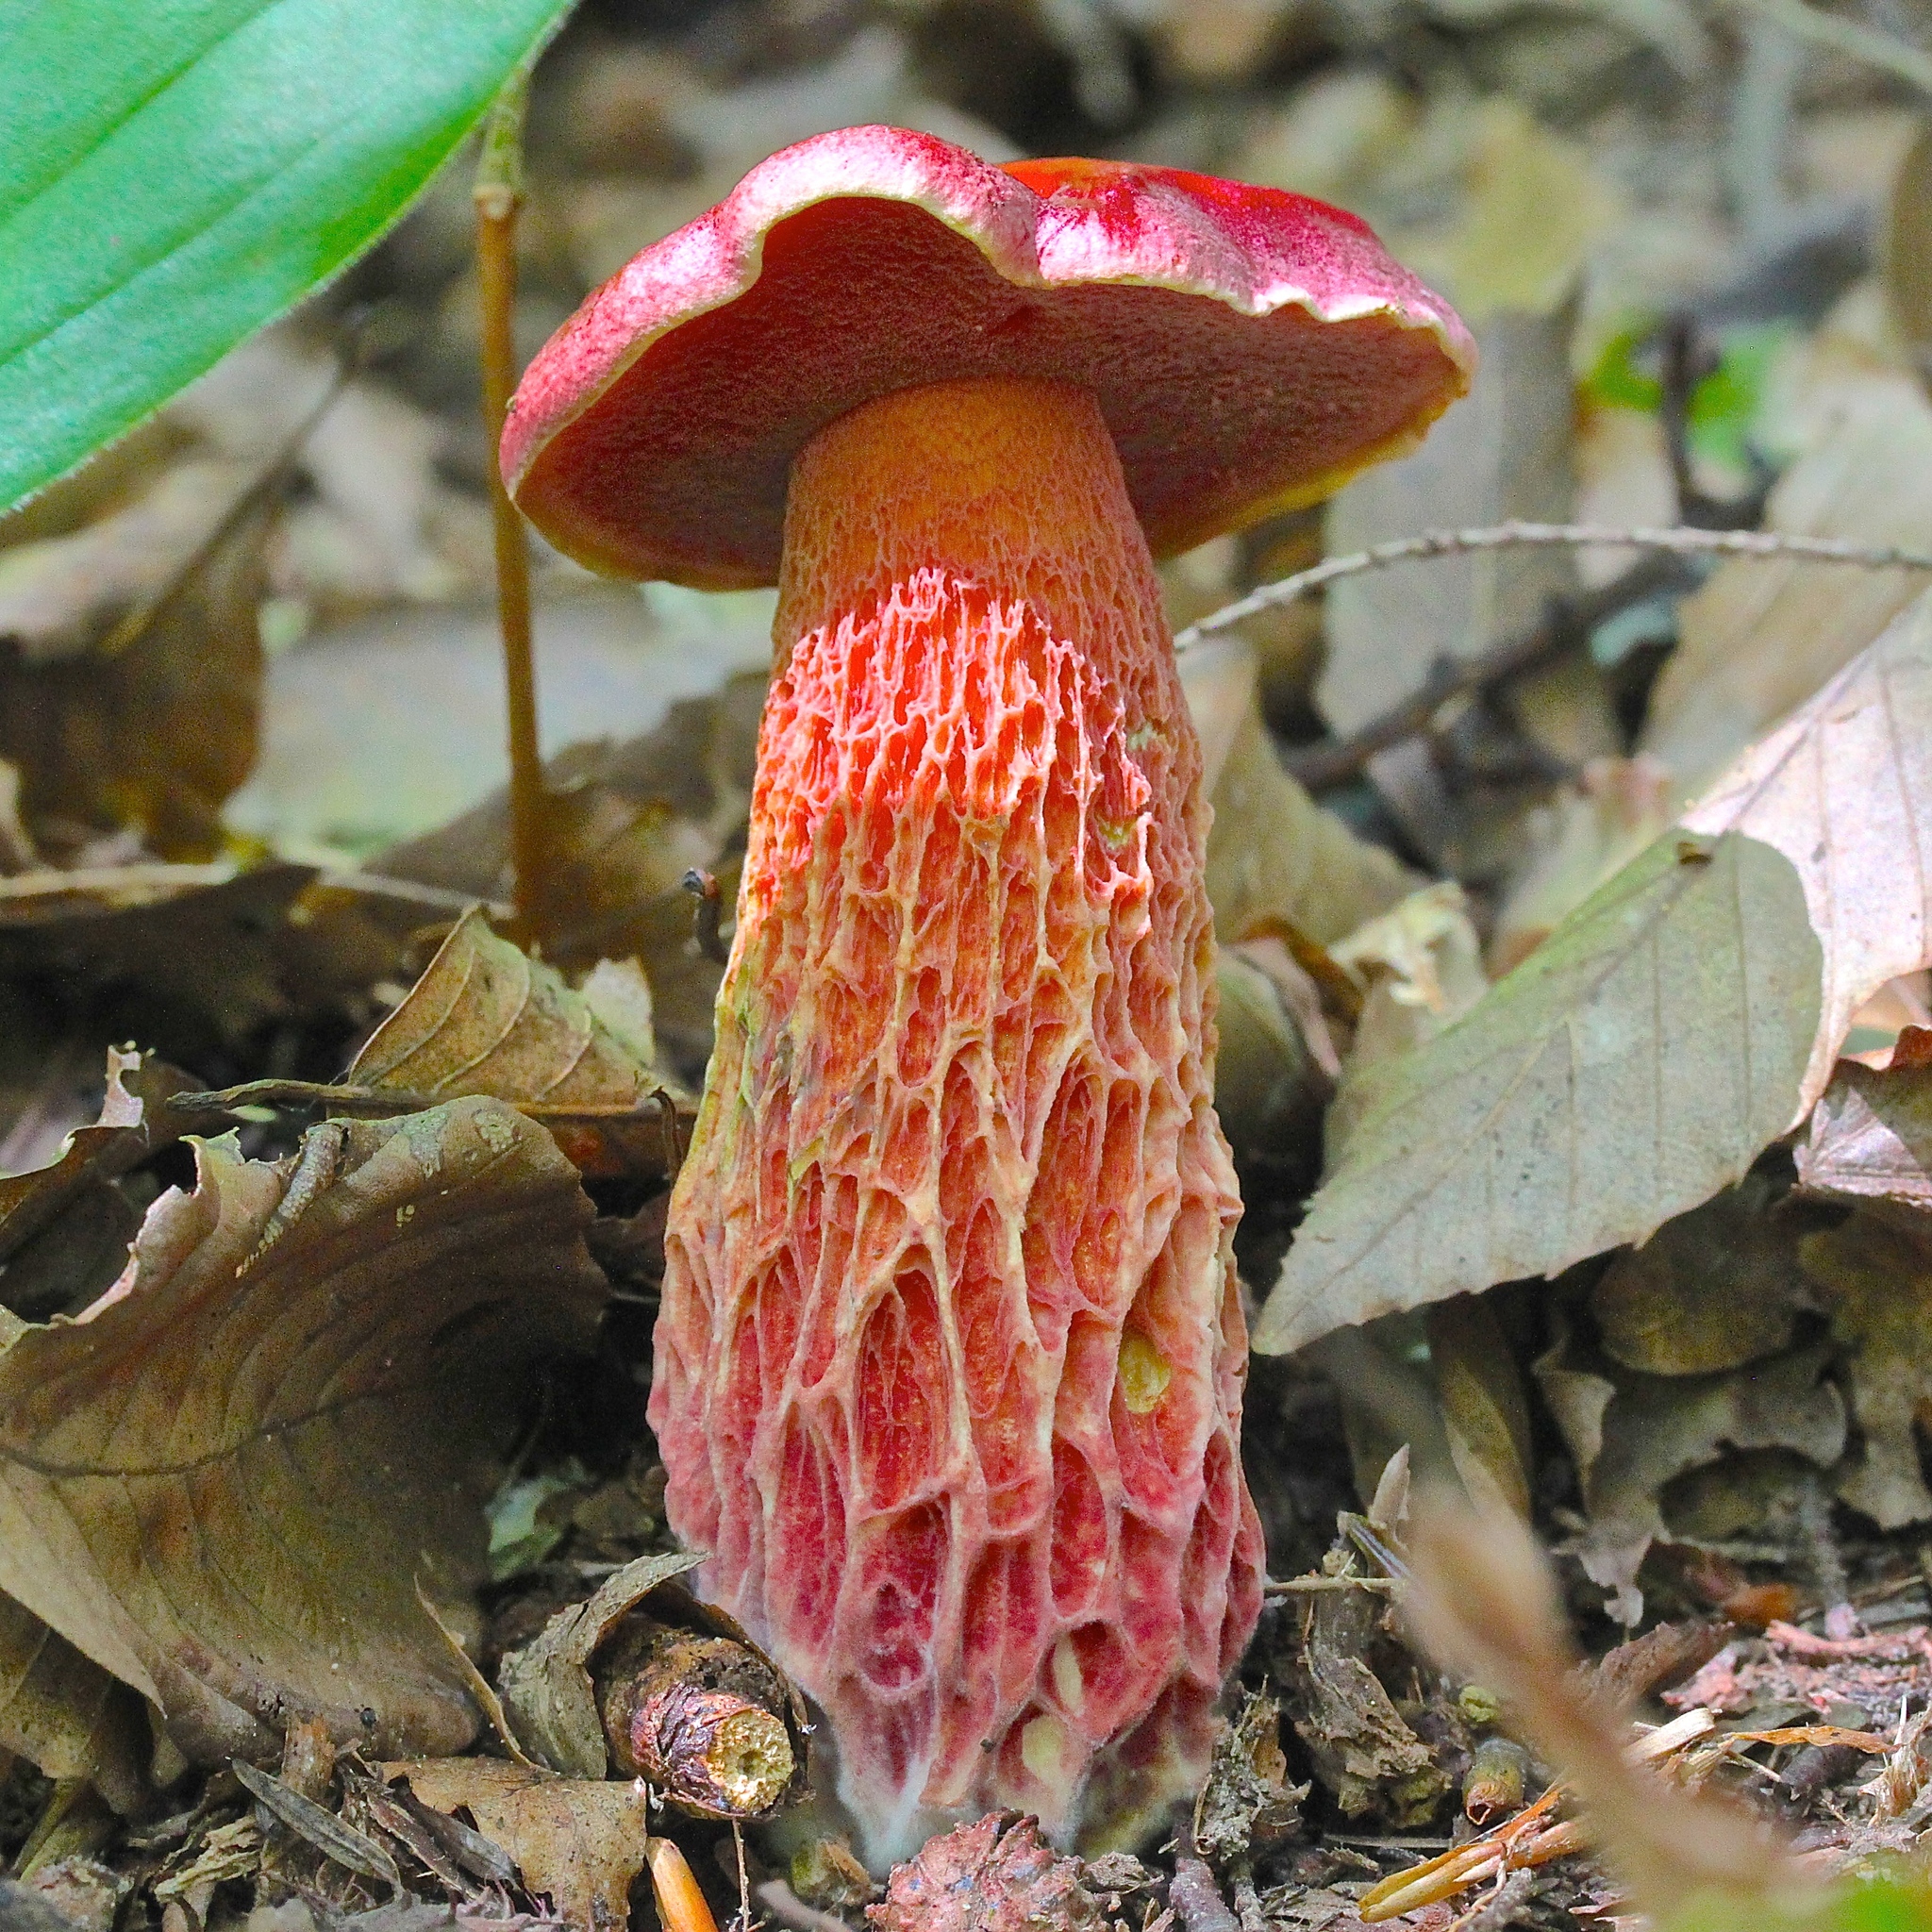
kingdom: Fungi
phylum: Basidiomycota
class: Agaricomycetes
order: Boletales
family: Boletaceae
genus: Butyriboletus
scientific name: Butyriboletus frostii
